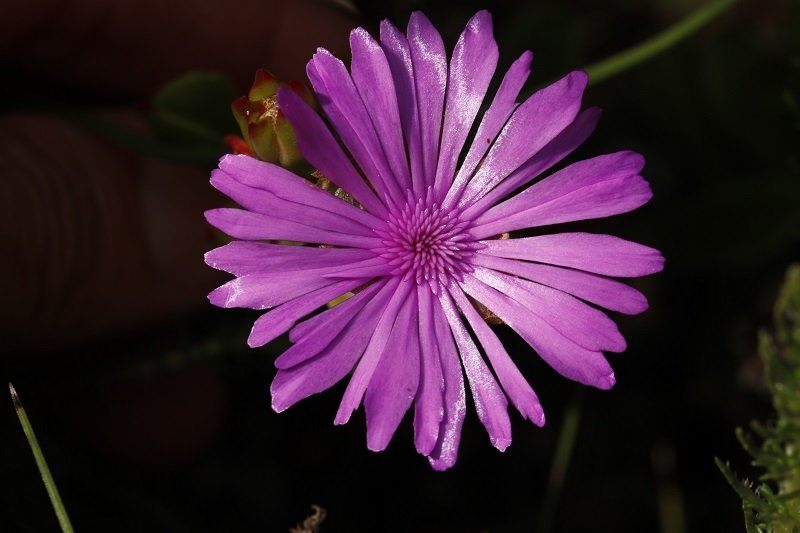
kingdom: Plantae
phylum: Tracheophyta
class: Magnoliopsida
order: Caryophyllales
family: Aizoaceae
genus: Erepsia
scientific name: Erepsia inclaudens
